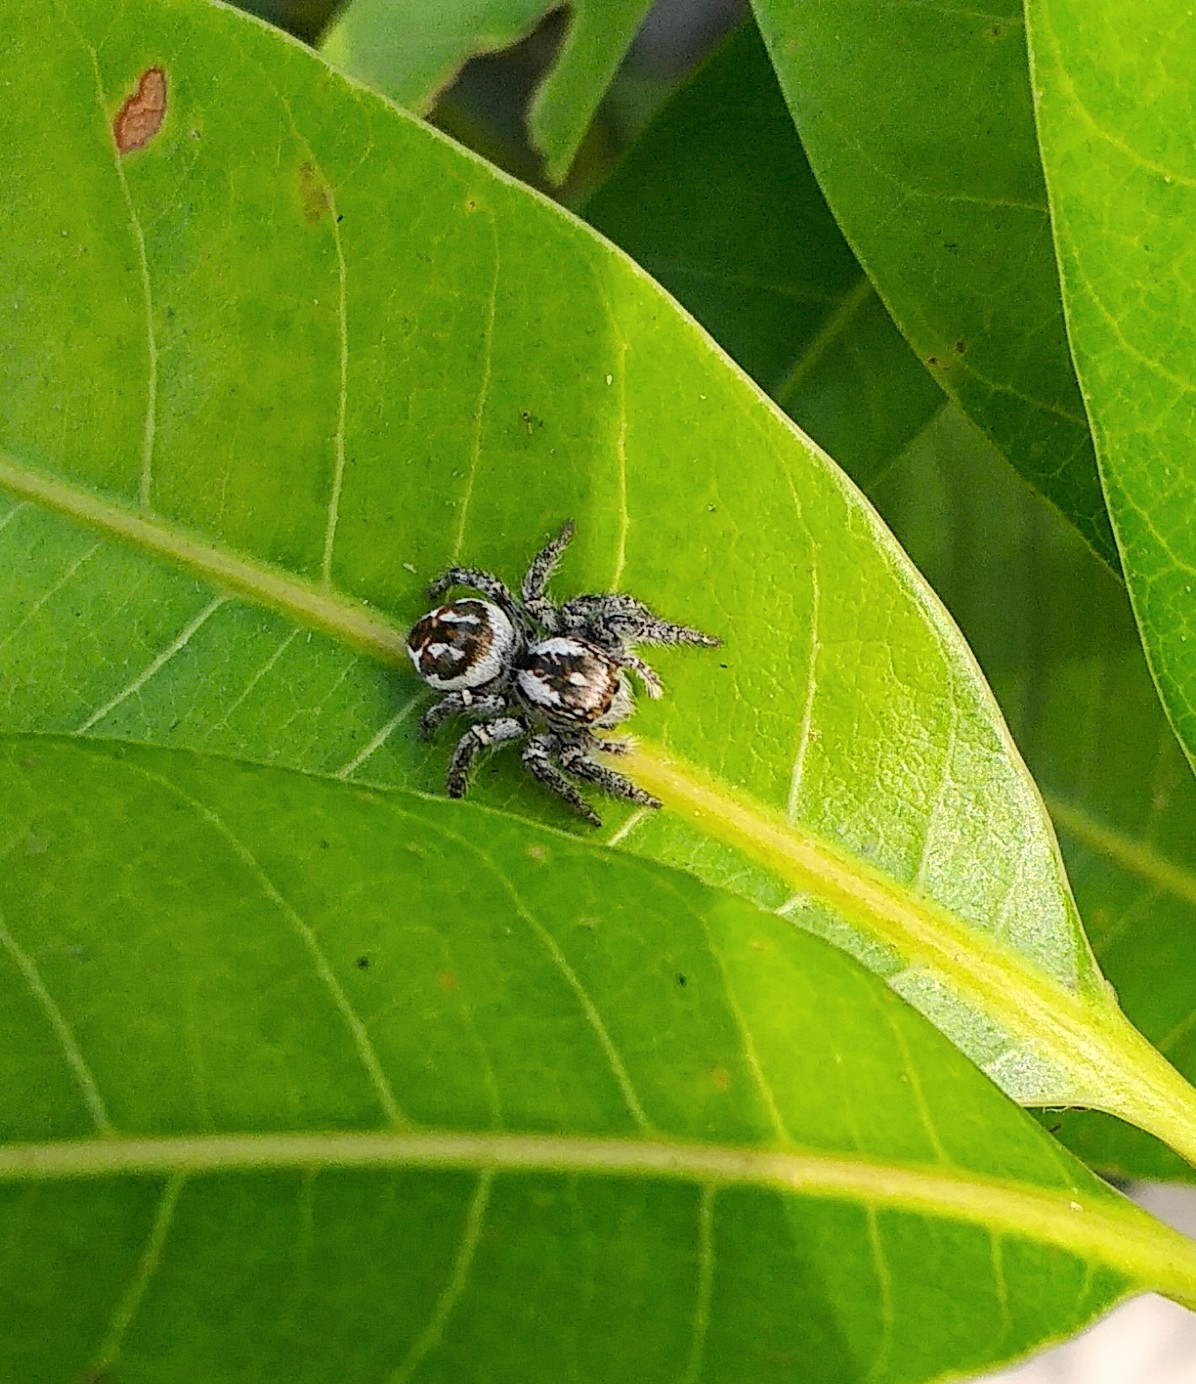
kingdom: Animalia
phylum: Arthropoda
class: Arachnida
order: Araneae
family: Salticidae
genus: Carrhotus
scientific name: Carrhotus viduus
